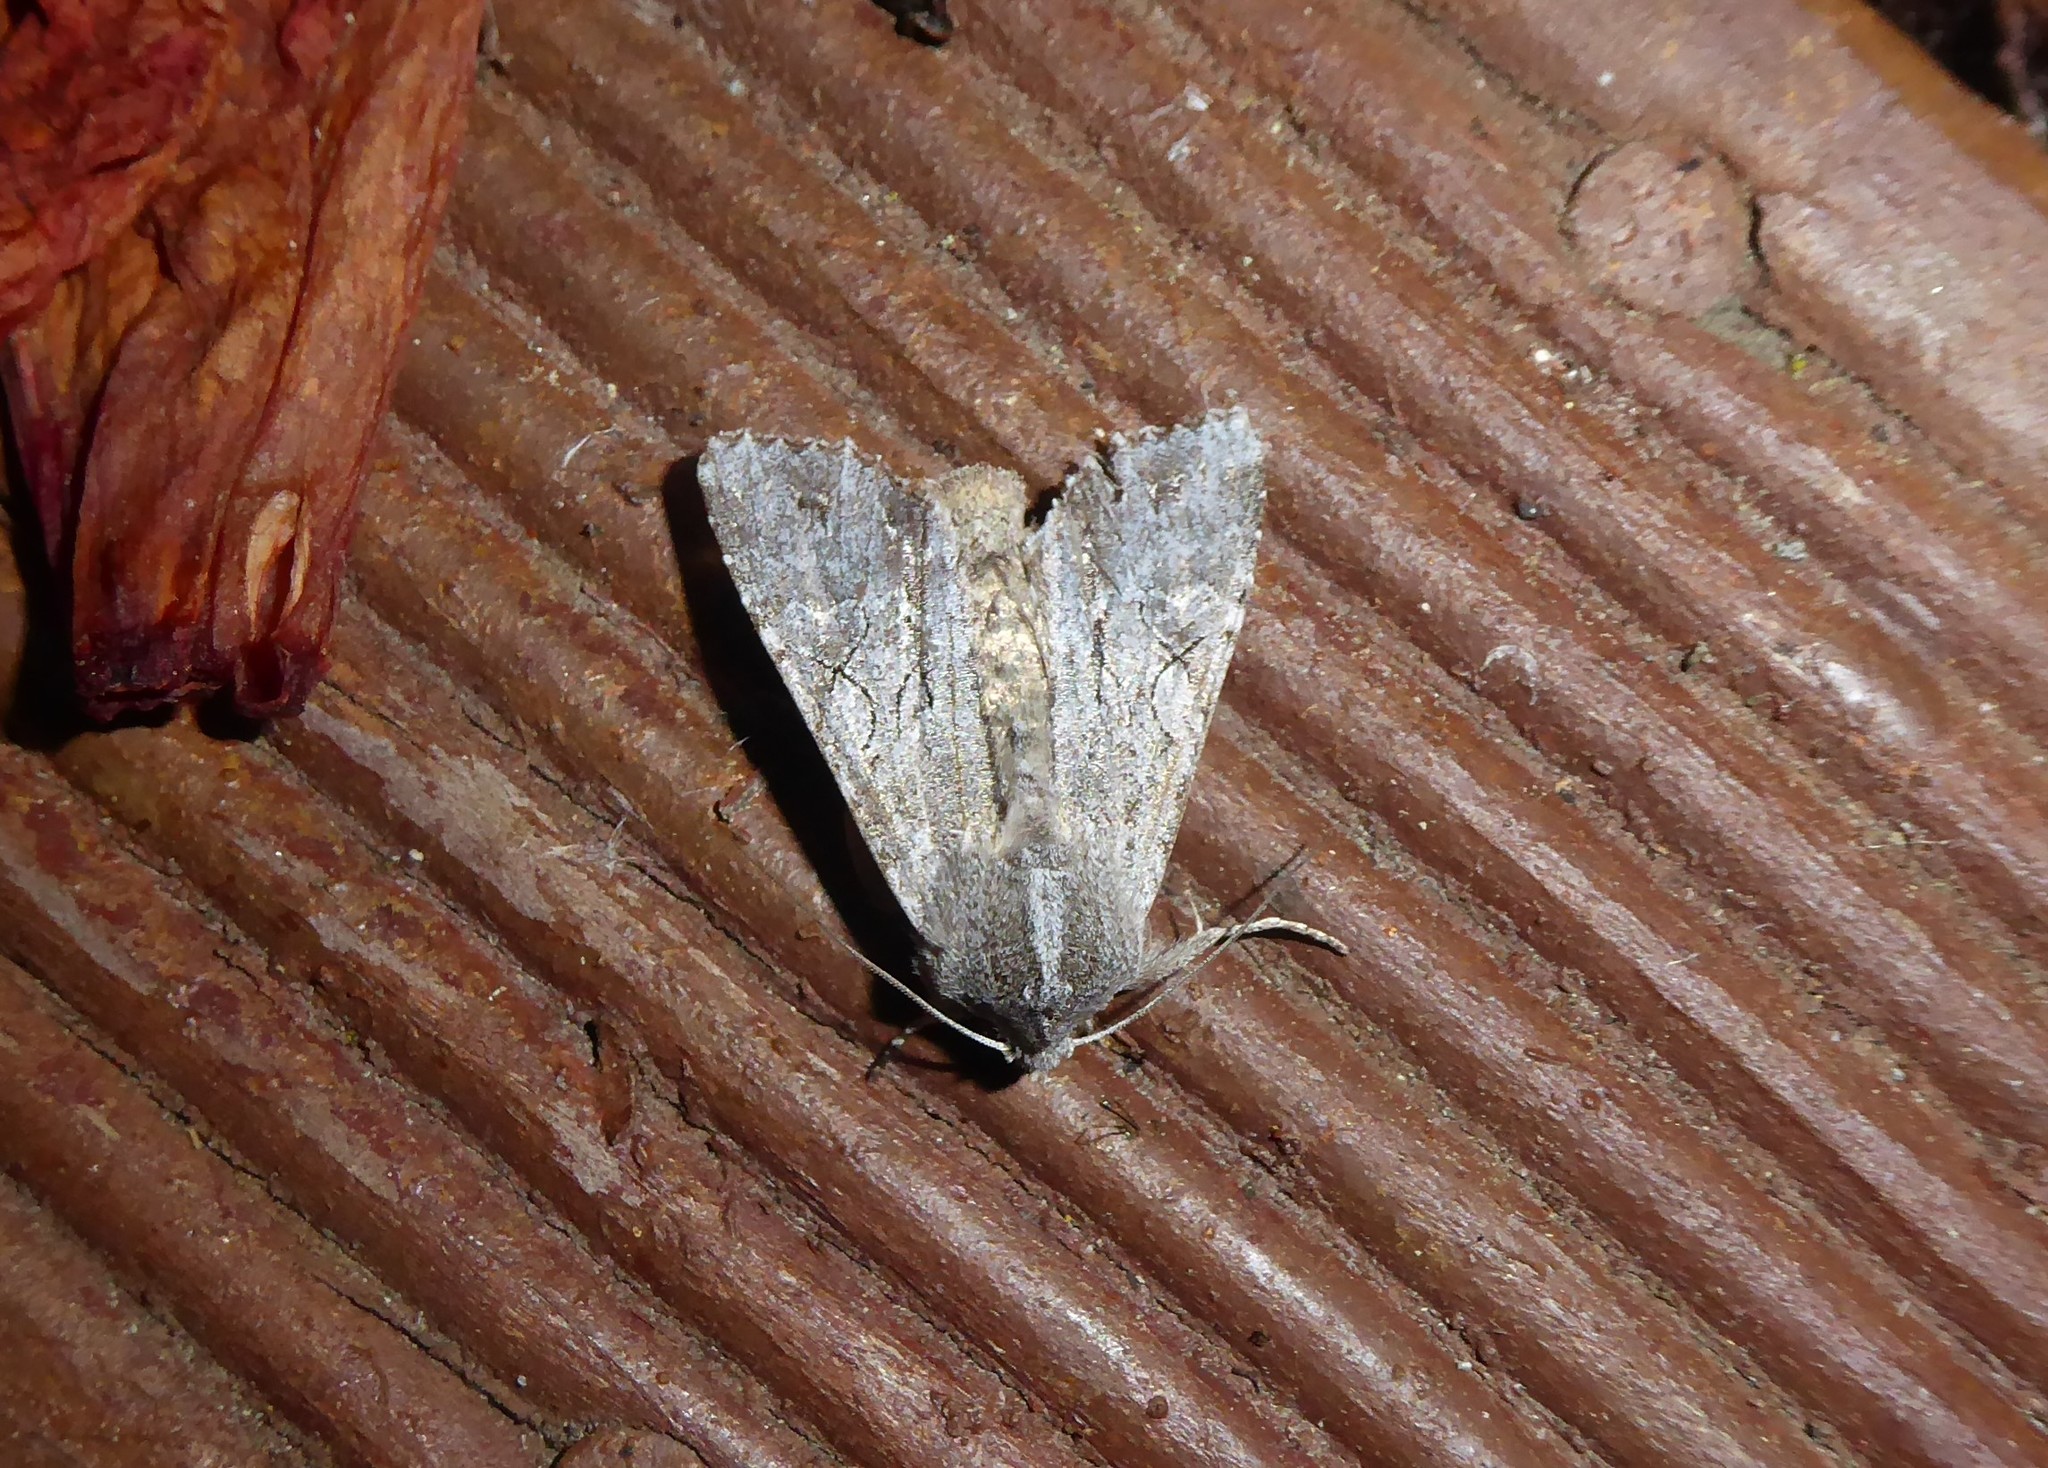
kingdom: Animalia
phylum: Arthropoda
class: Insecta
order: Lepidoptera
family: Noctuidae
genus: Ichneutica
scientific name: Ichneutica
